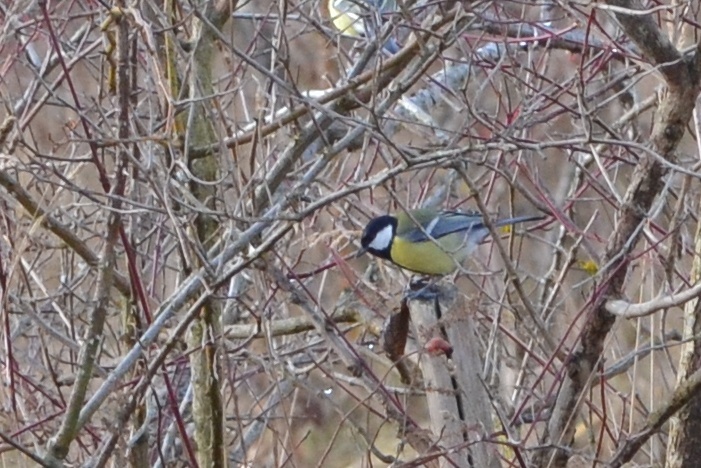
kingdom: Animalia
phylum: Chordata
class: Aves
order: Passeriformes
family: Paridae
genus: Parus
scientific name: Parus major
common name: Great tit
